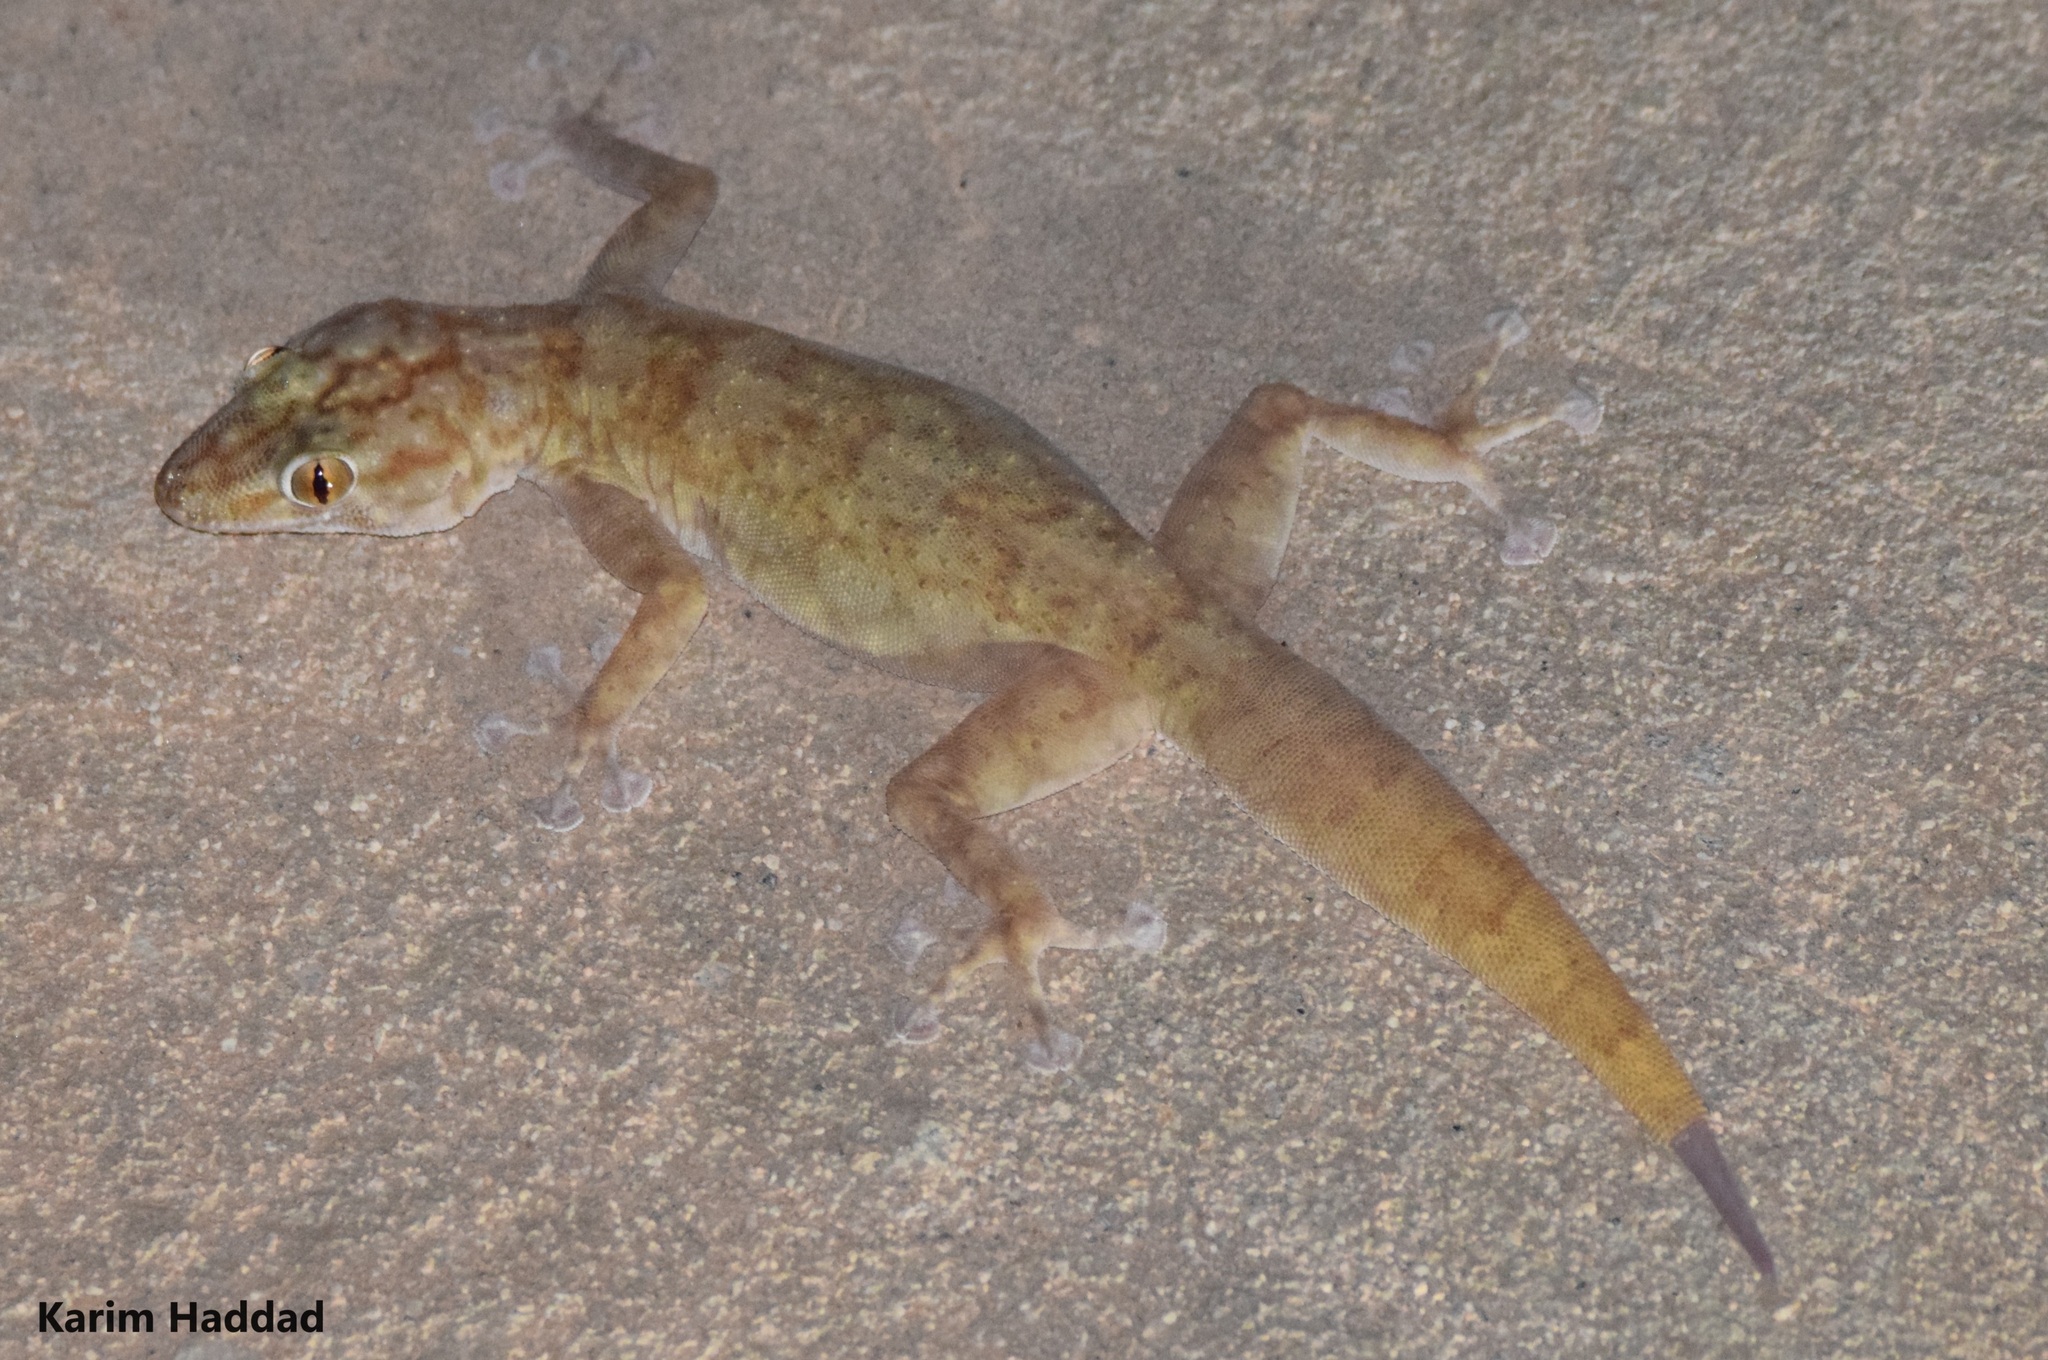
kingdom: Animalia
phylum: Chordata
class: Squamata
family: Phyllodactylidae
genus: Ptyodactylus
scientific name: Ptyodactylus togoensis
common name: Togo fan-footed gecko
